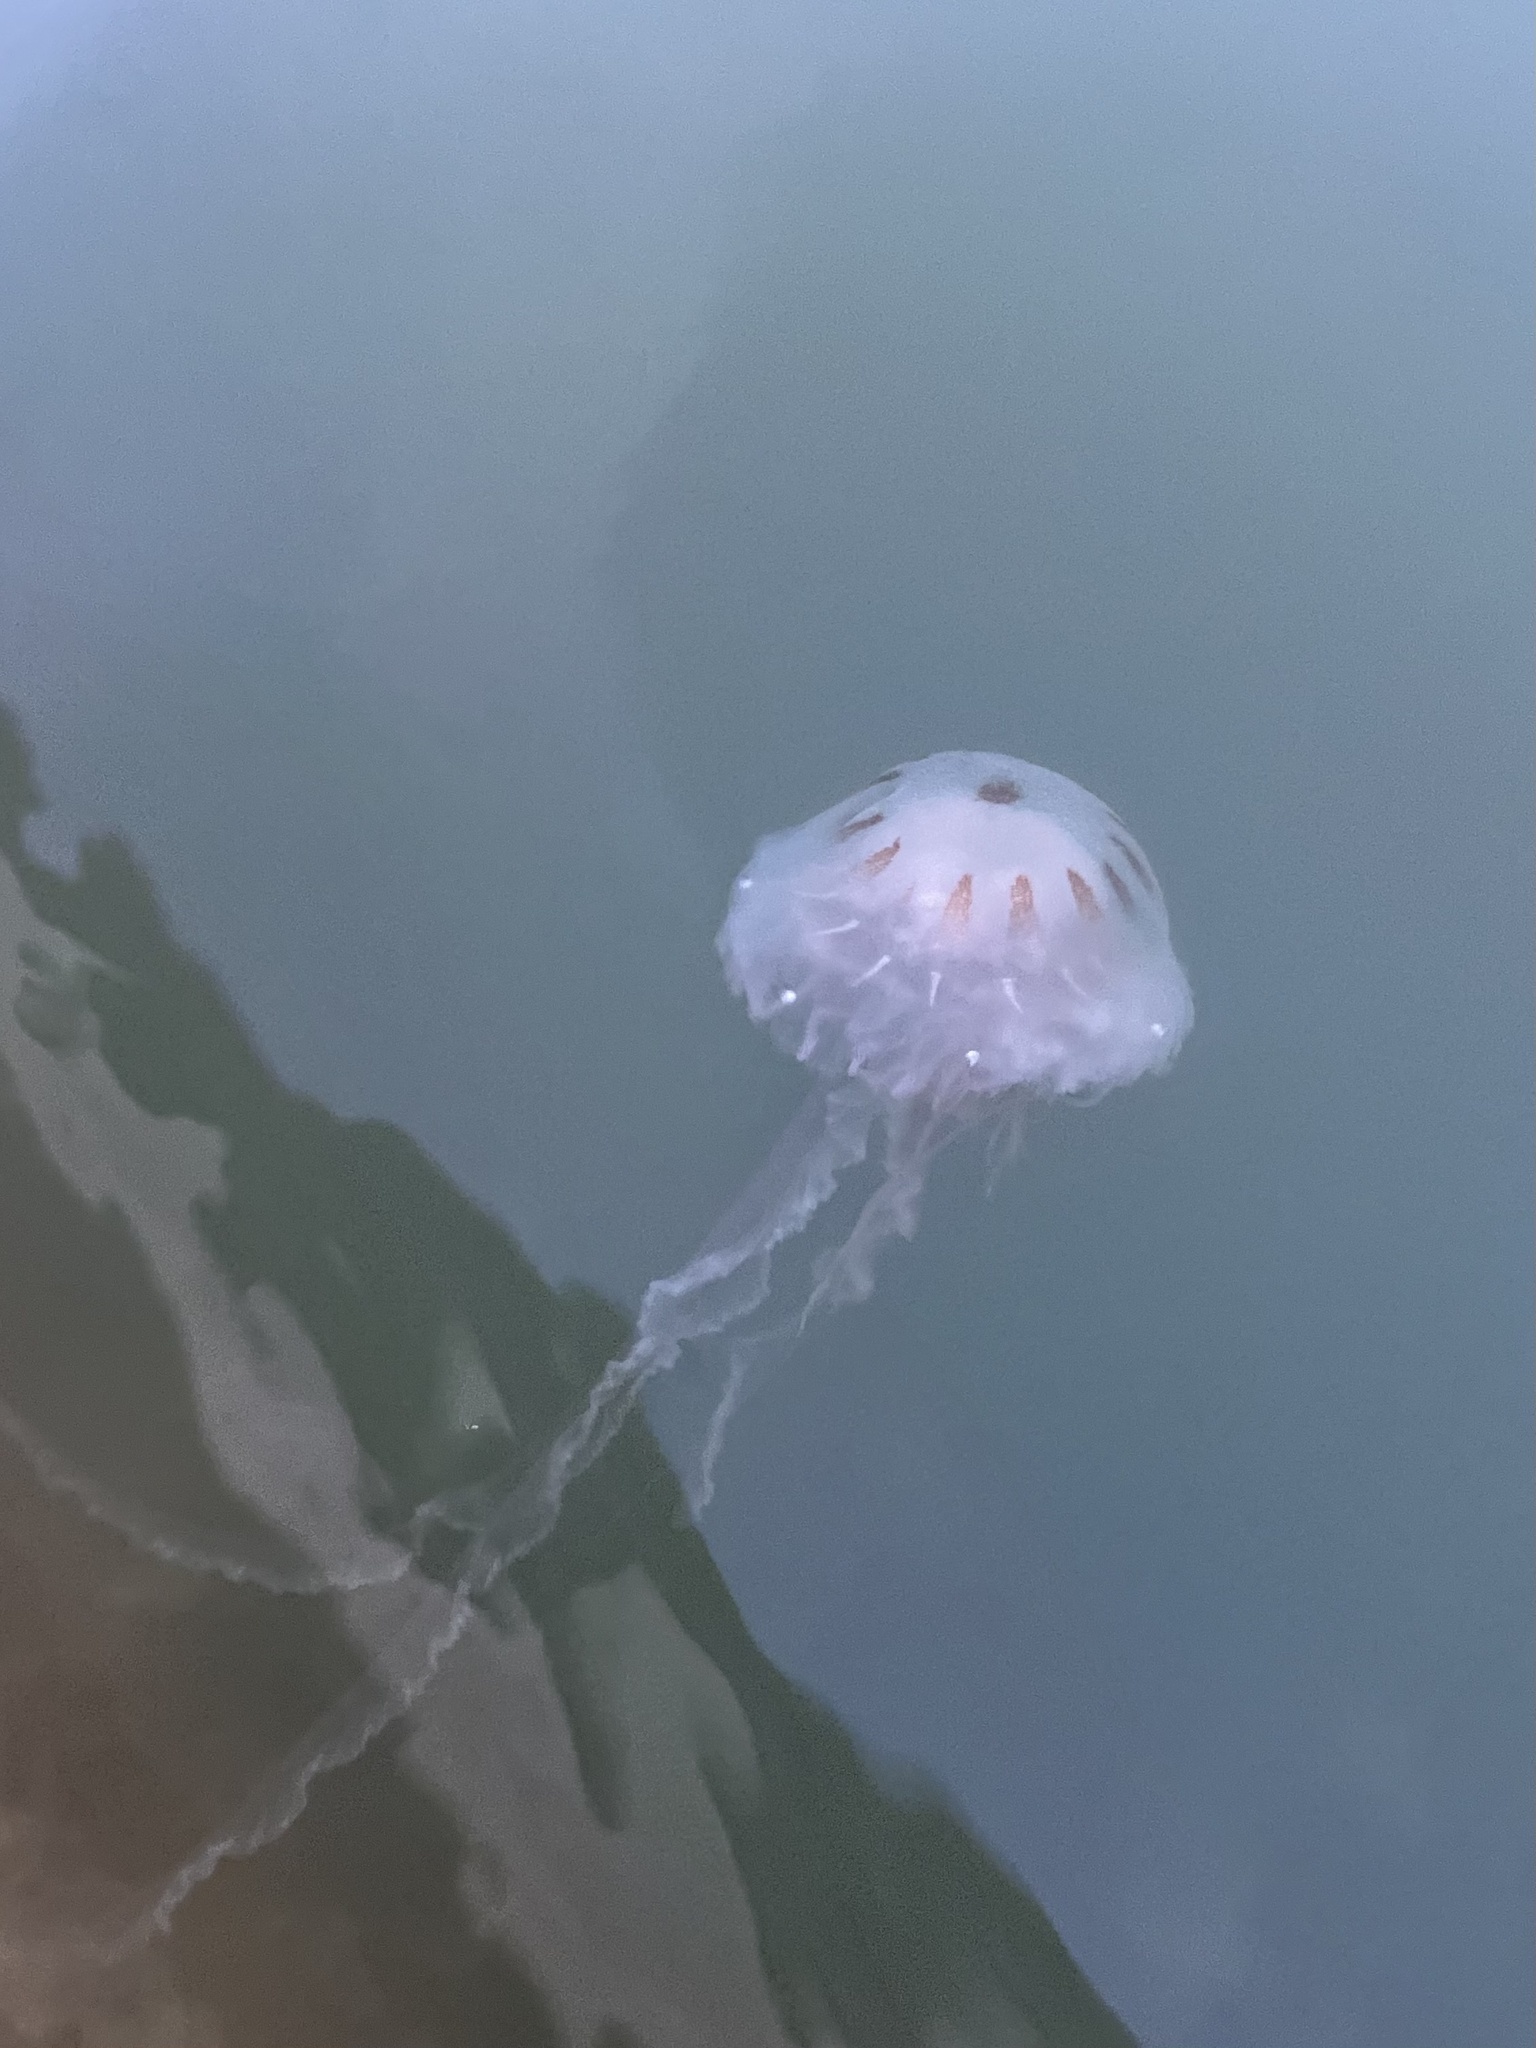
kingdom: Animalia
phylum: Cnidaria
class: Scyphozoa
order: Semaeostomeae
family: Pelagiidae
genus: Chrysaora
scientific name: Chrysaora chesapeakei
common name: Bay nettle
